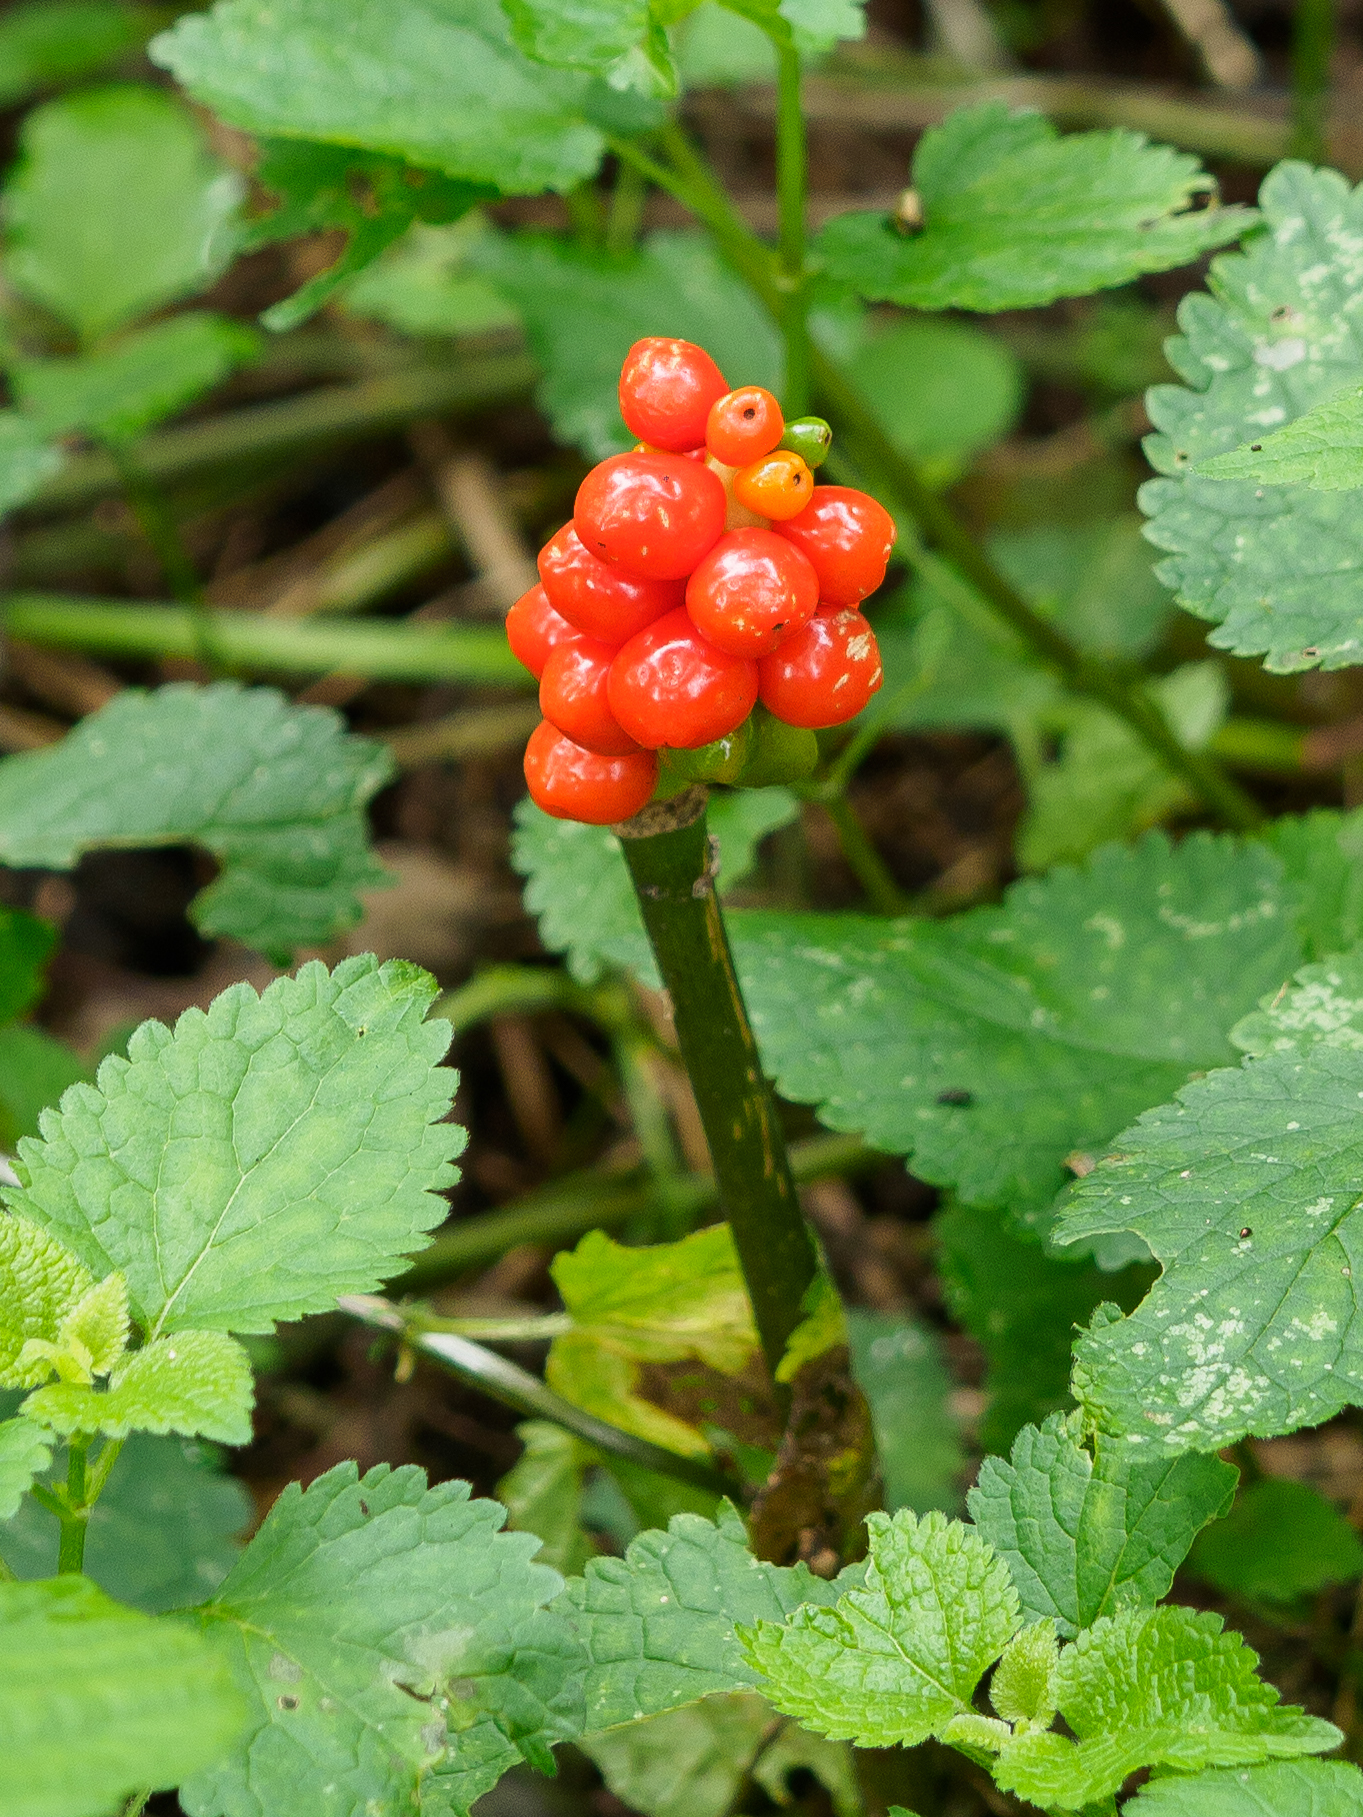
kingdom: Plantae
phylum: Tracheophyta
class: Liliopsida
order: Alismatales
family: Araceae
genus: Arum
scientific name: Arum maculatum
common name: Lords-and-ladies
